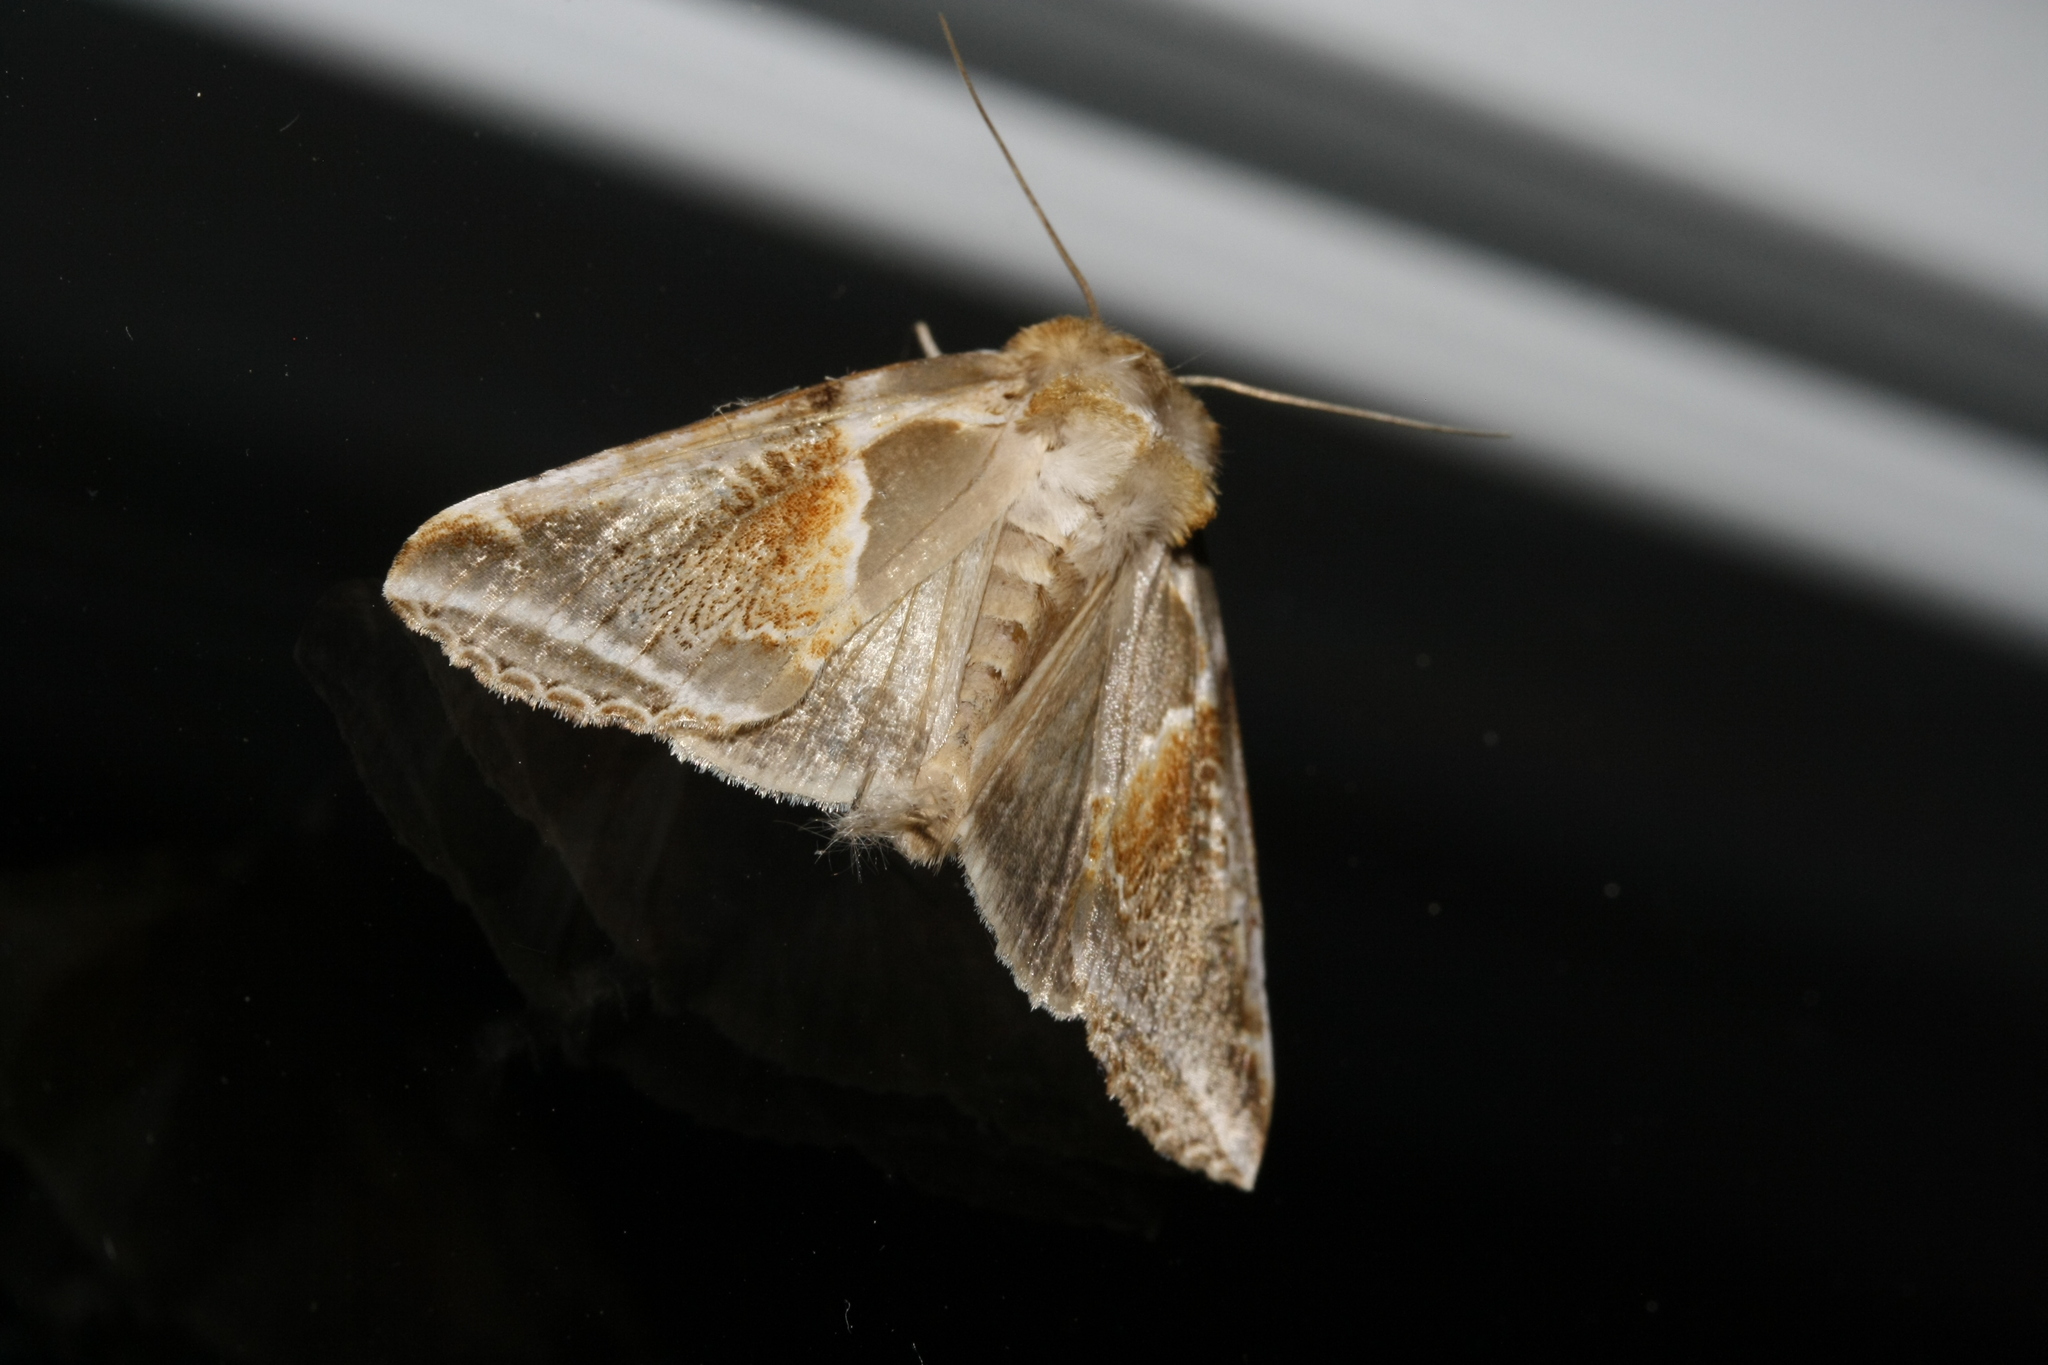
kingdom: Animalia
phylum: Arthropoda
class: Insecta
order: Lepidoptera
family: Drepanidae
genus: Habrosyne
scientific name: Habrosyne pyritoides
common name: Buff arches
